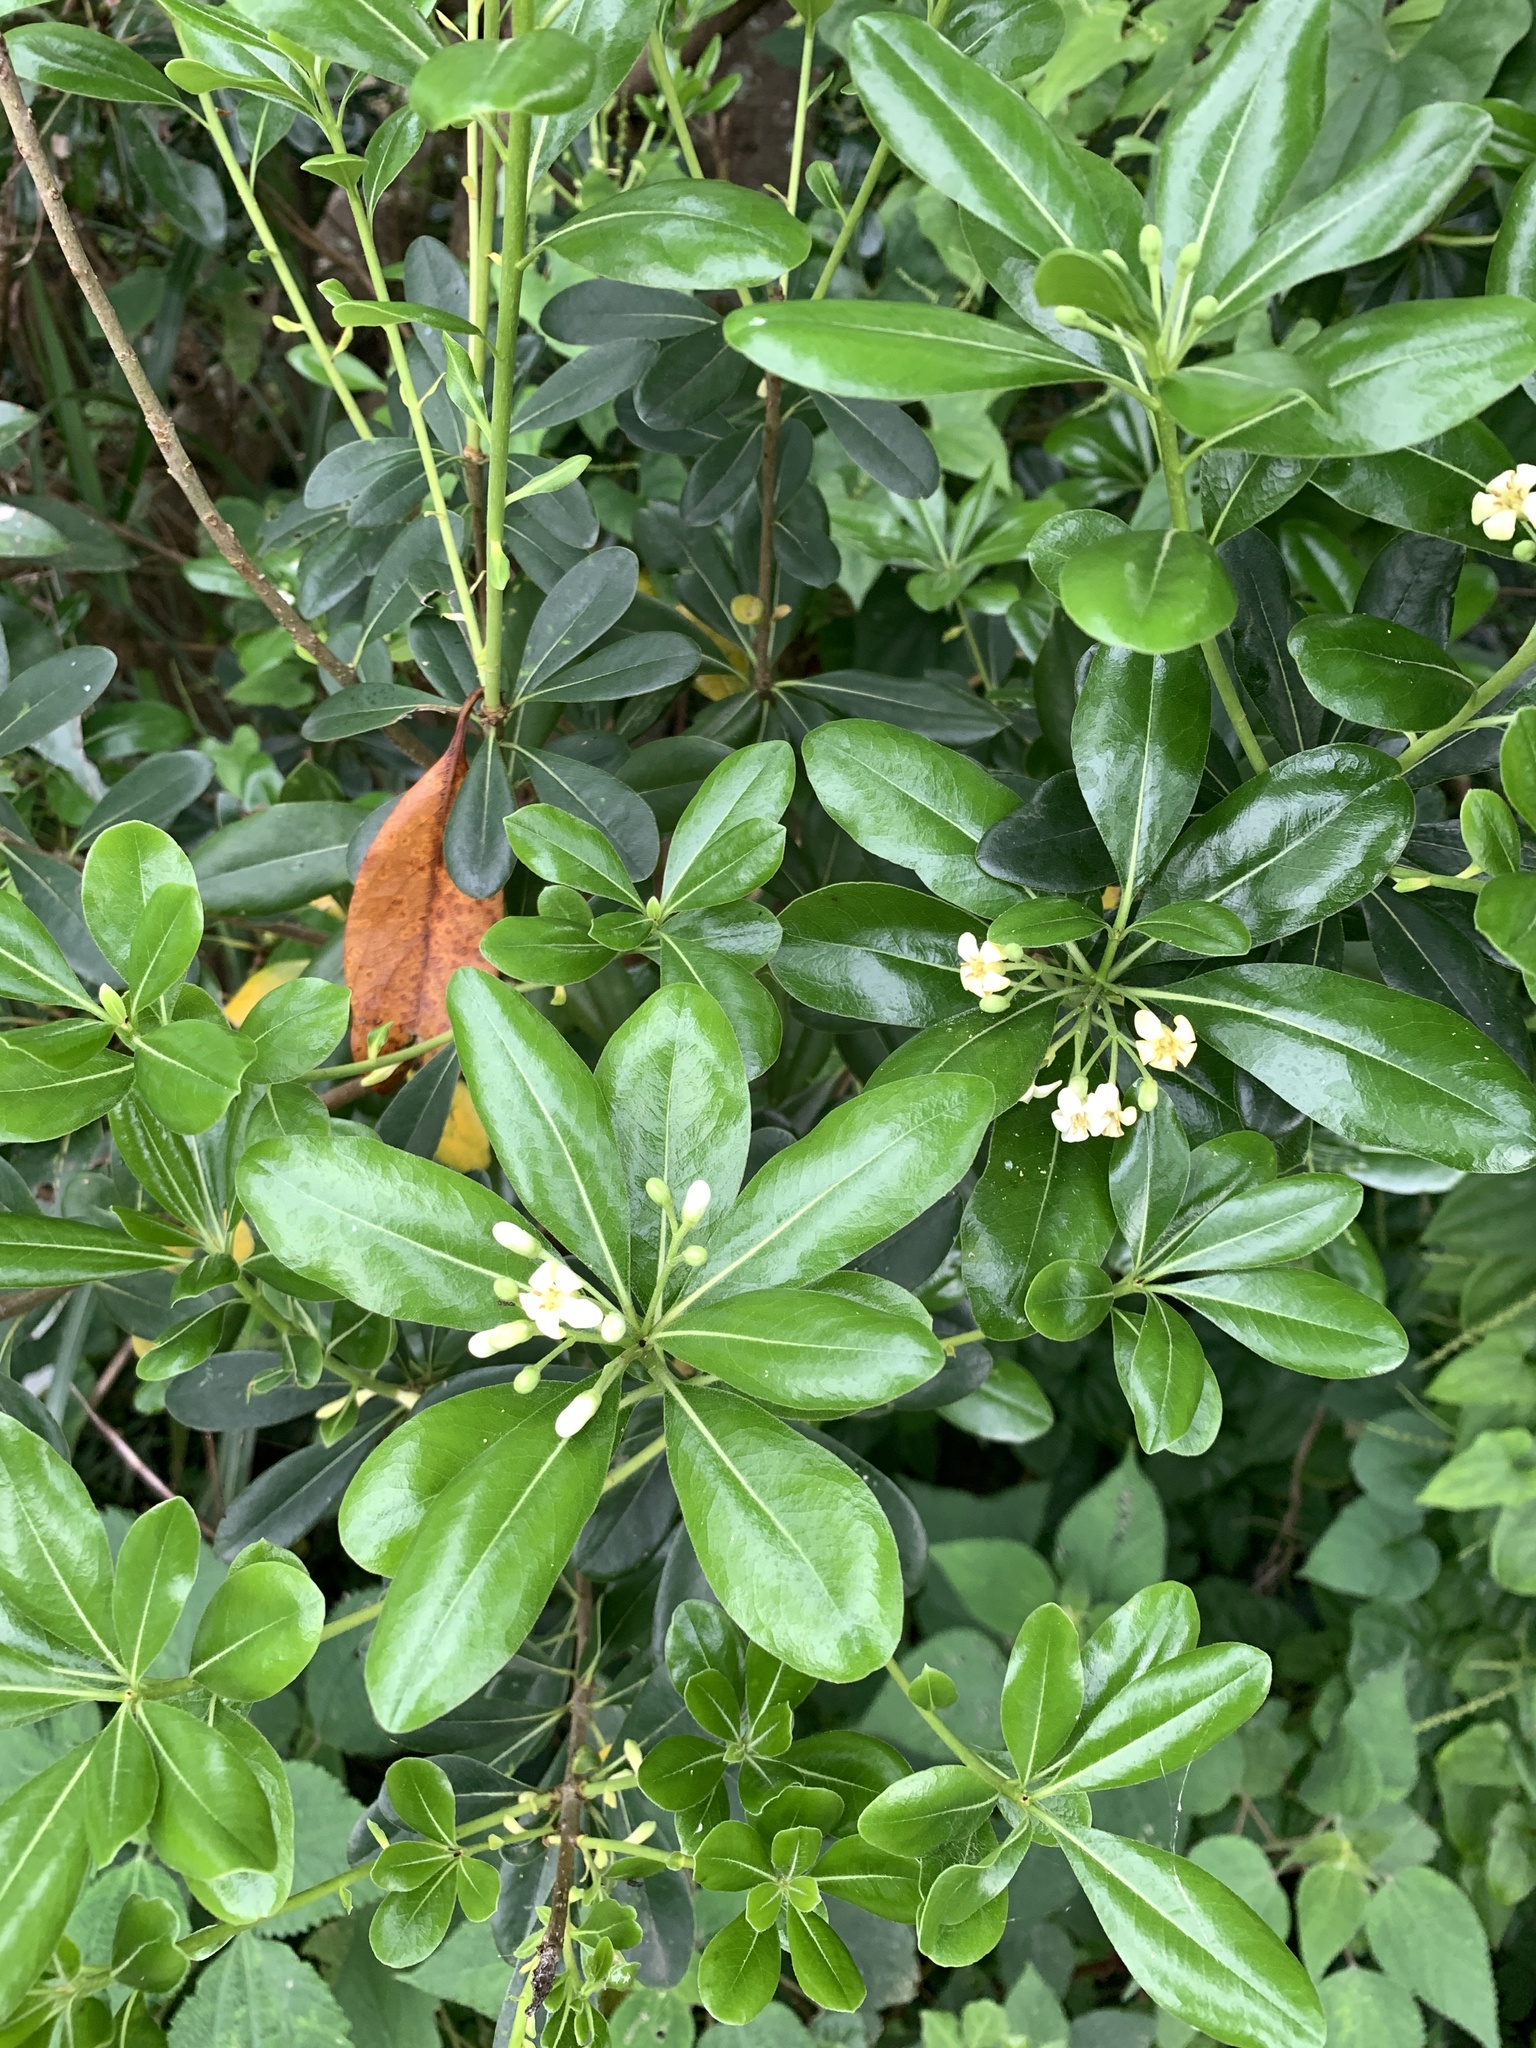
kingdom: Plantae
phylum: Tracheophyta
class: Magnoliopsida
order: Apiales
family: Pittosporaceae
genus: Pittosporum
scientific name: Pittosporum tobira
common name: Japanese cheesewood
